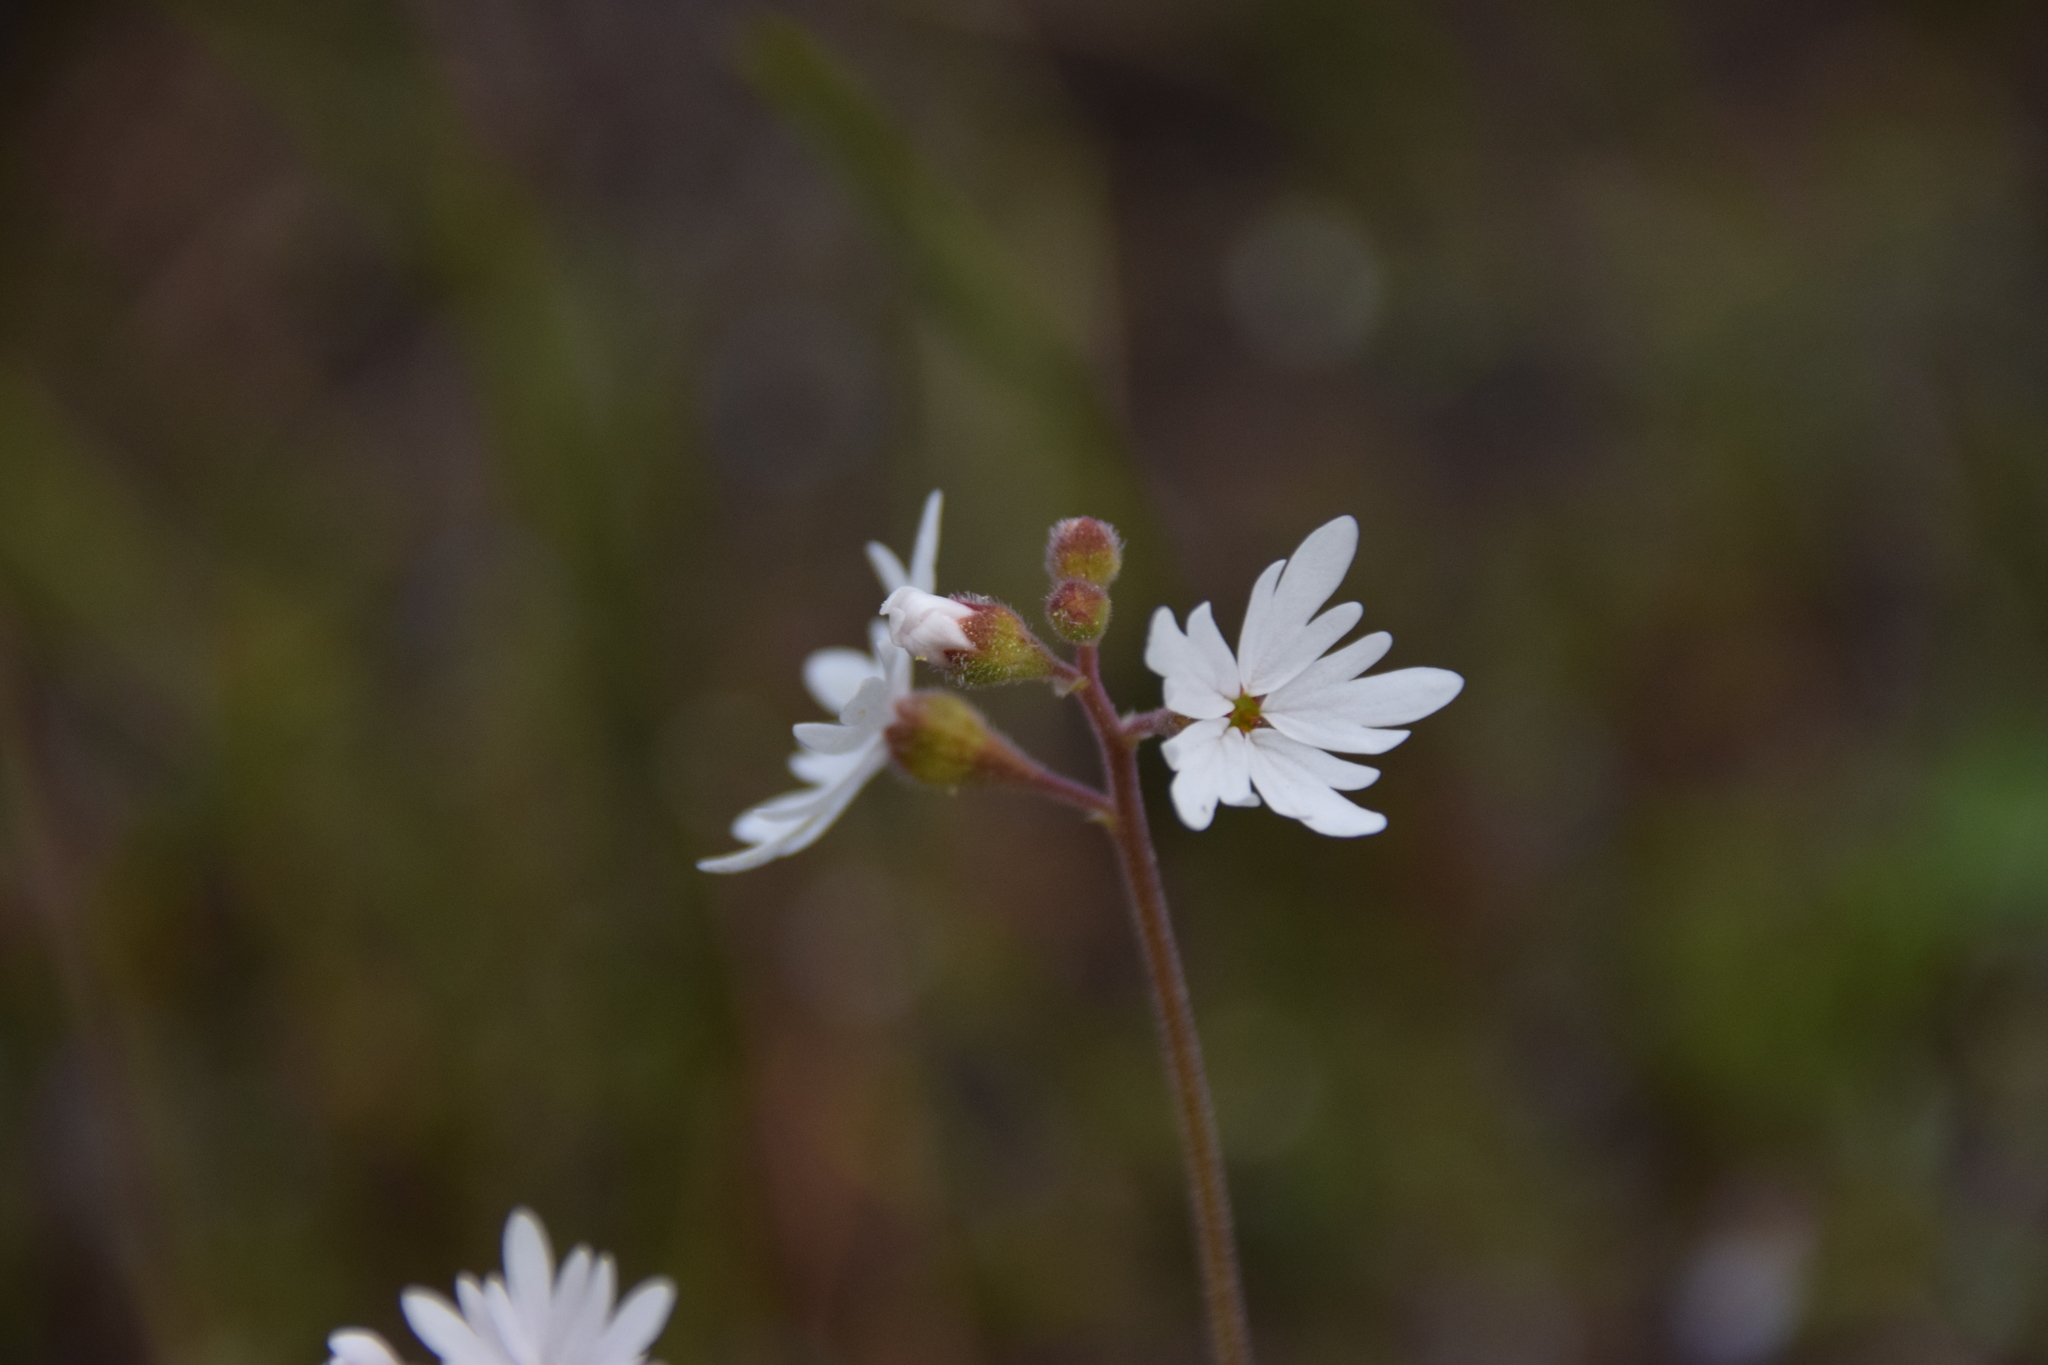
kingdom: Plantae
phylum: Tracheophyta
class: Magnoliopsida
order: Saxifragales
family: Saxifragaceae
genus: Lithophragma
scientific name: Lithophragma parviflorum
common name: Small-flowered fringe-cup
